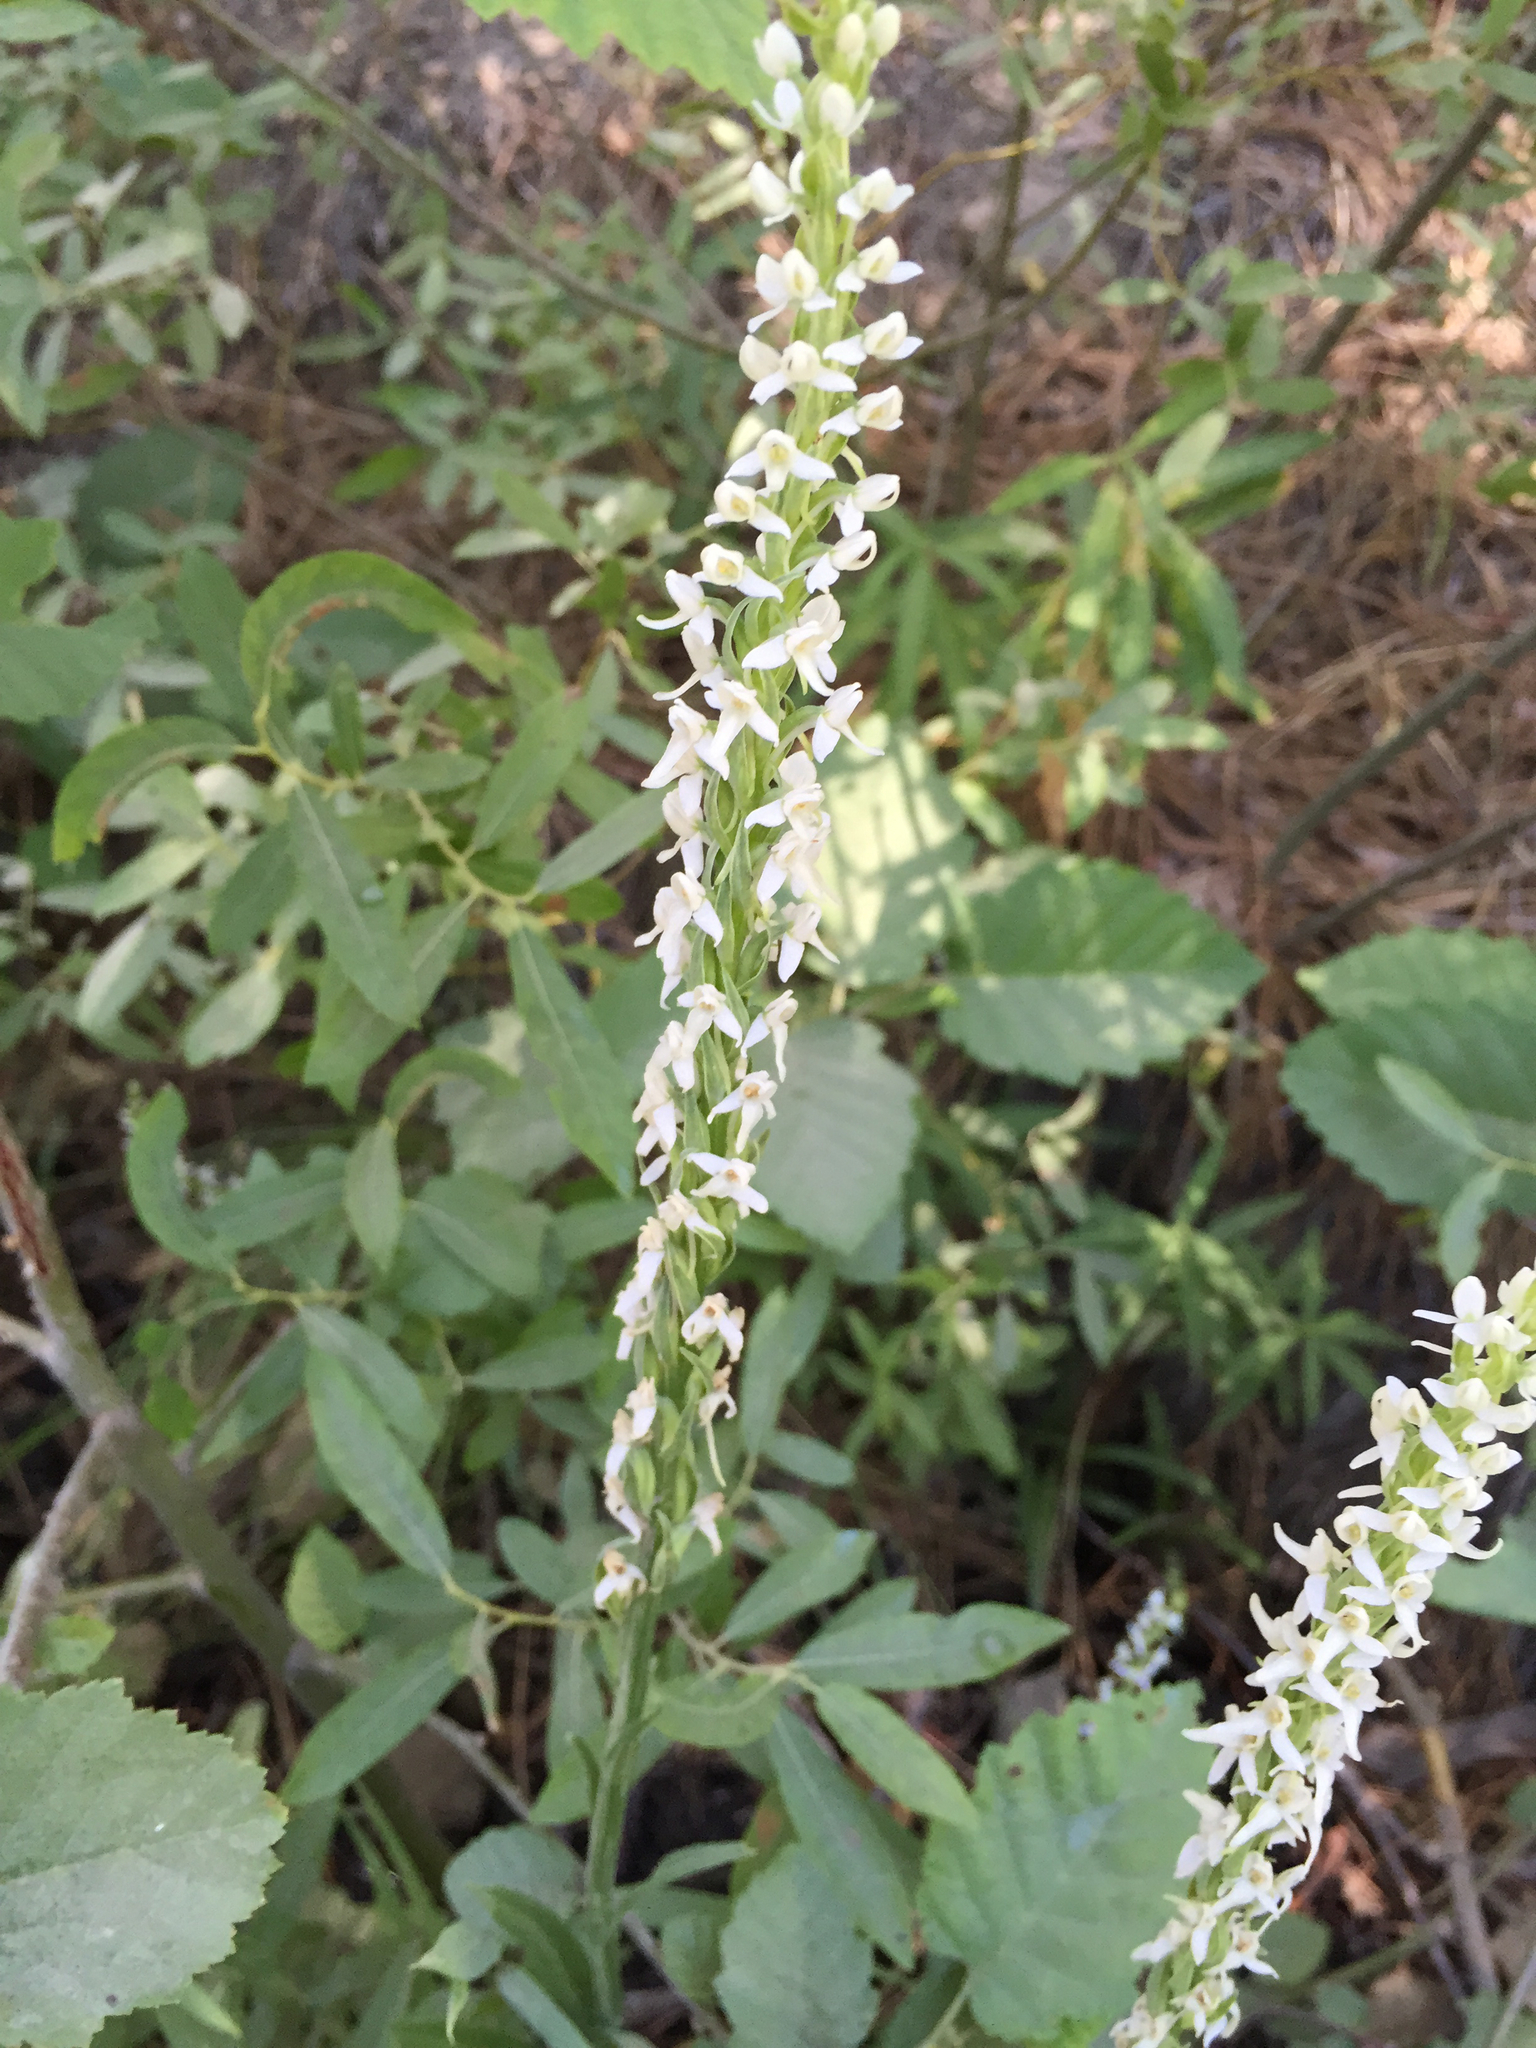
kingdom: Plantae
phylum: Tracheophyta
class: Liliopsida
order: Asparagales
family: Orchidaceae
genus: Platanthera
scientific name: Platanthera dilatata
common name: Bog candles
